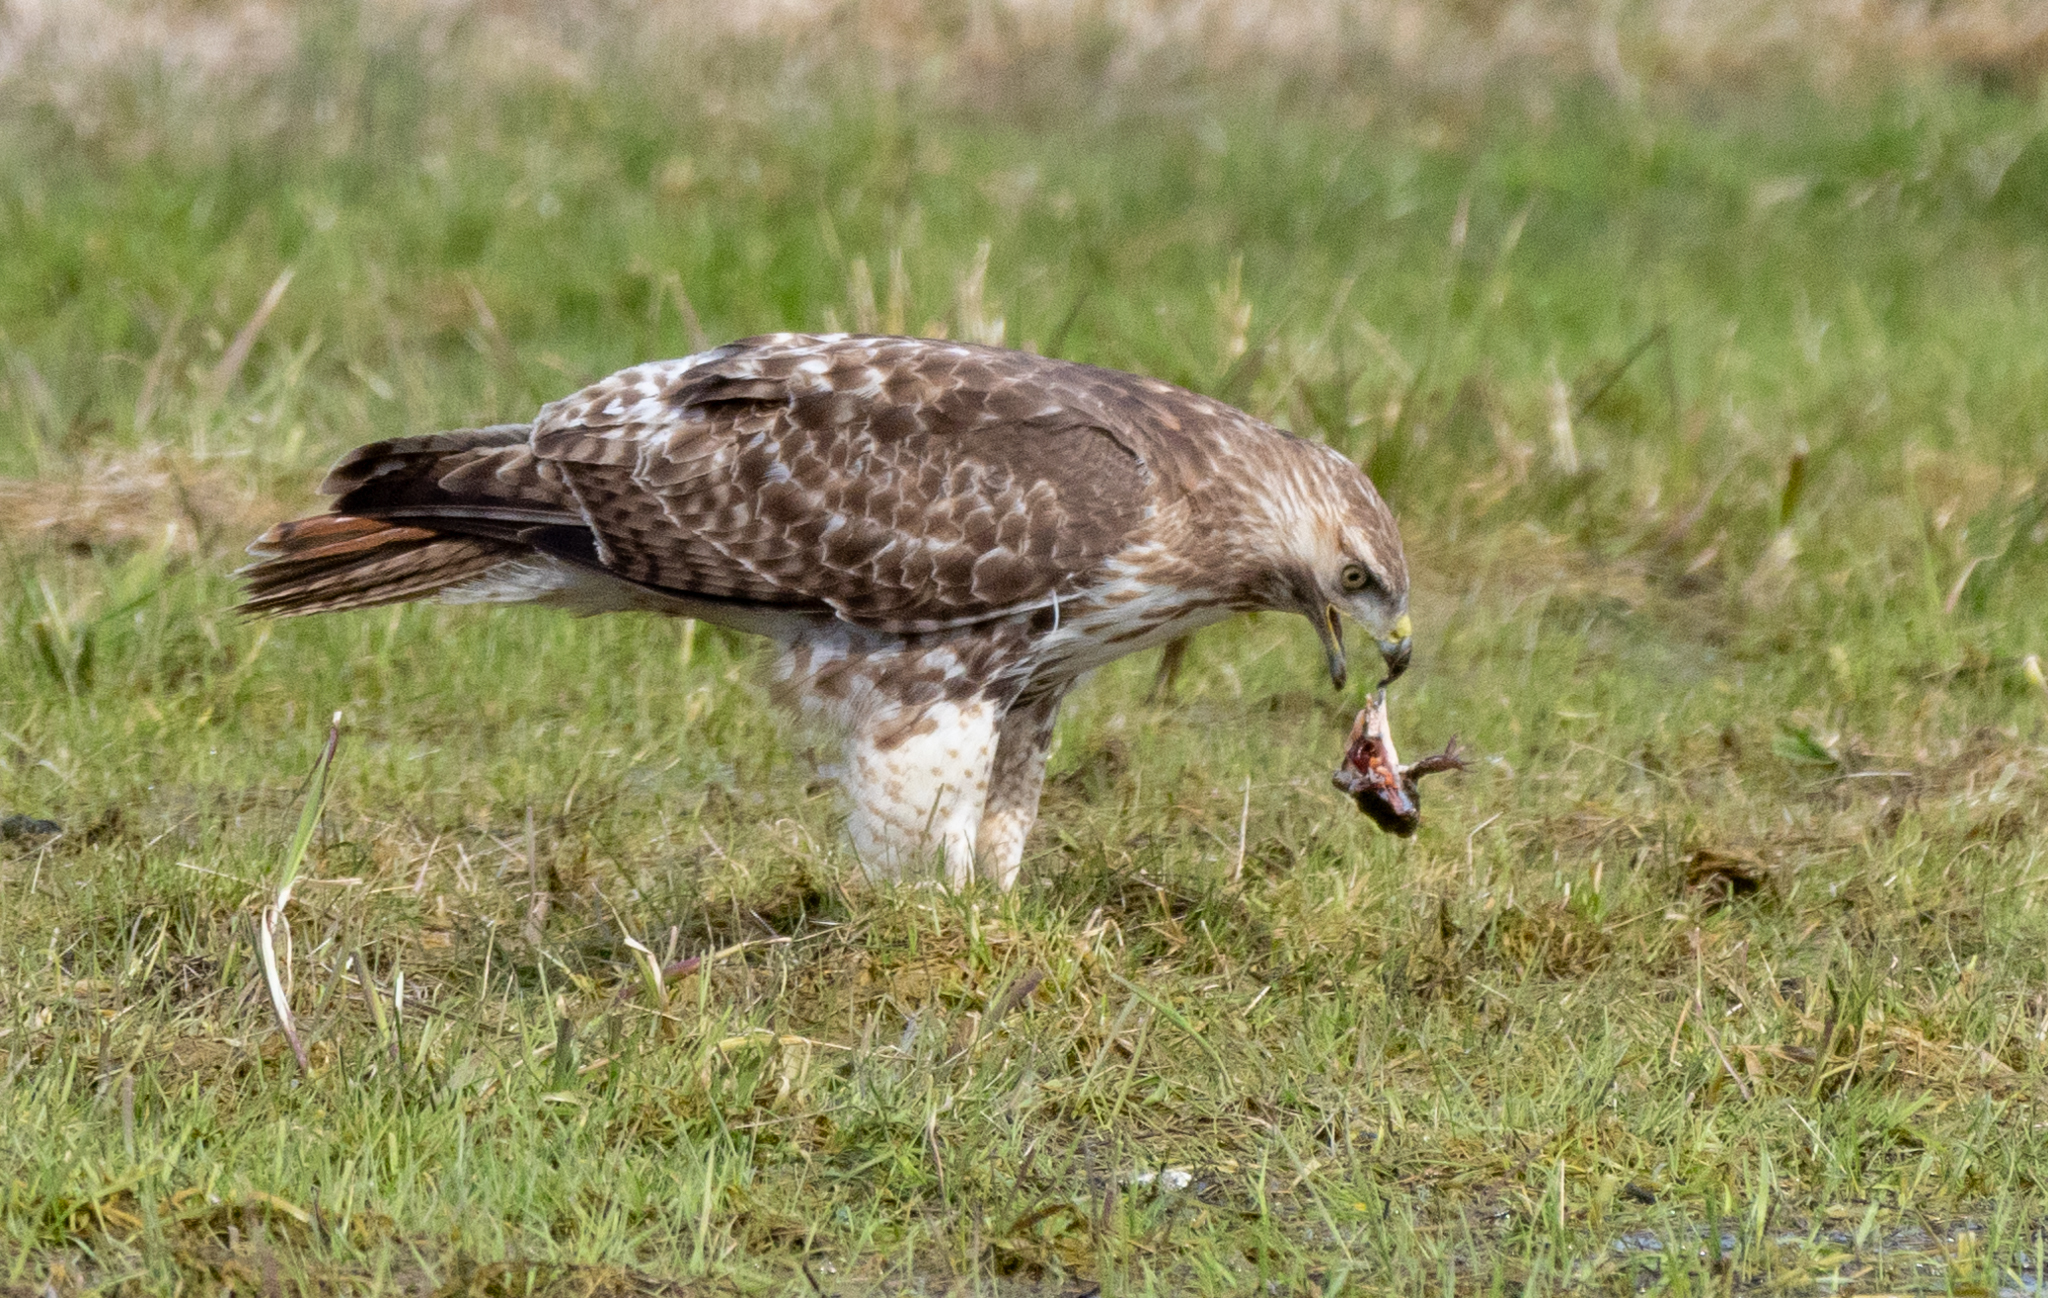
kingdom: Animalia
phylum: Chordata
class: Aves
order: Accipitriformes
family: Accipitridae
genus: Buteo
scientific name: Buteo jamaicensis
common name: Red-tailed hawk
